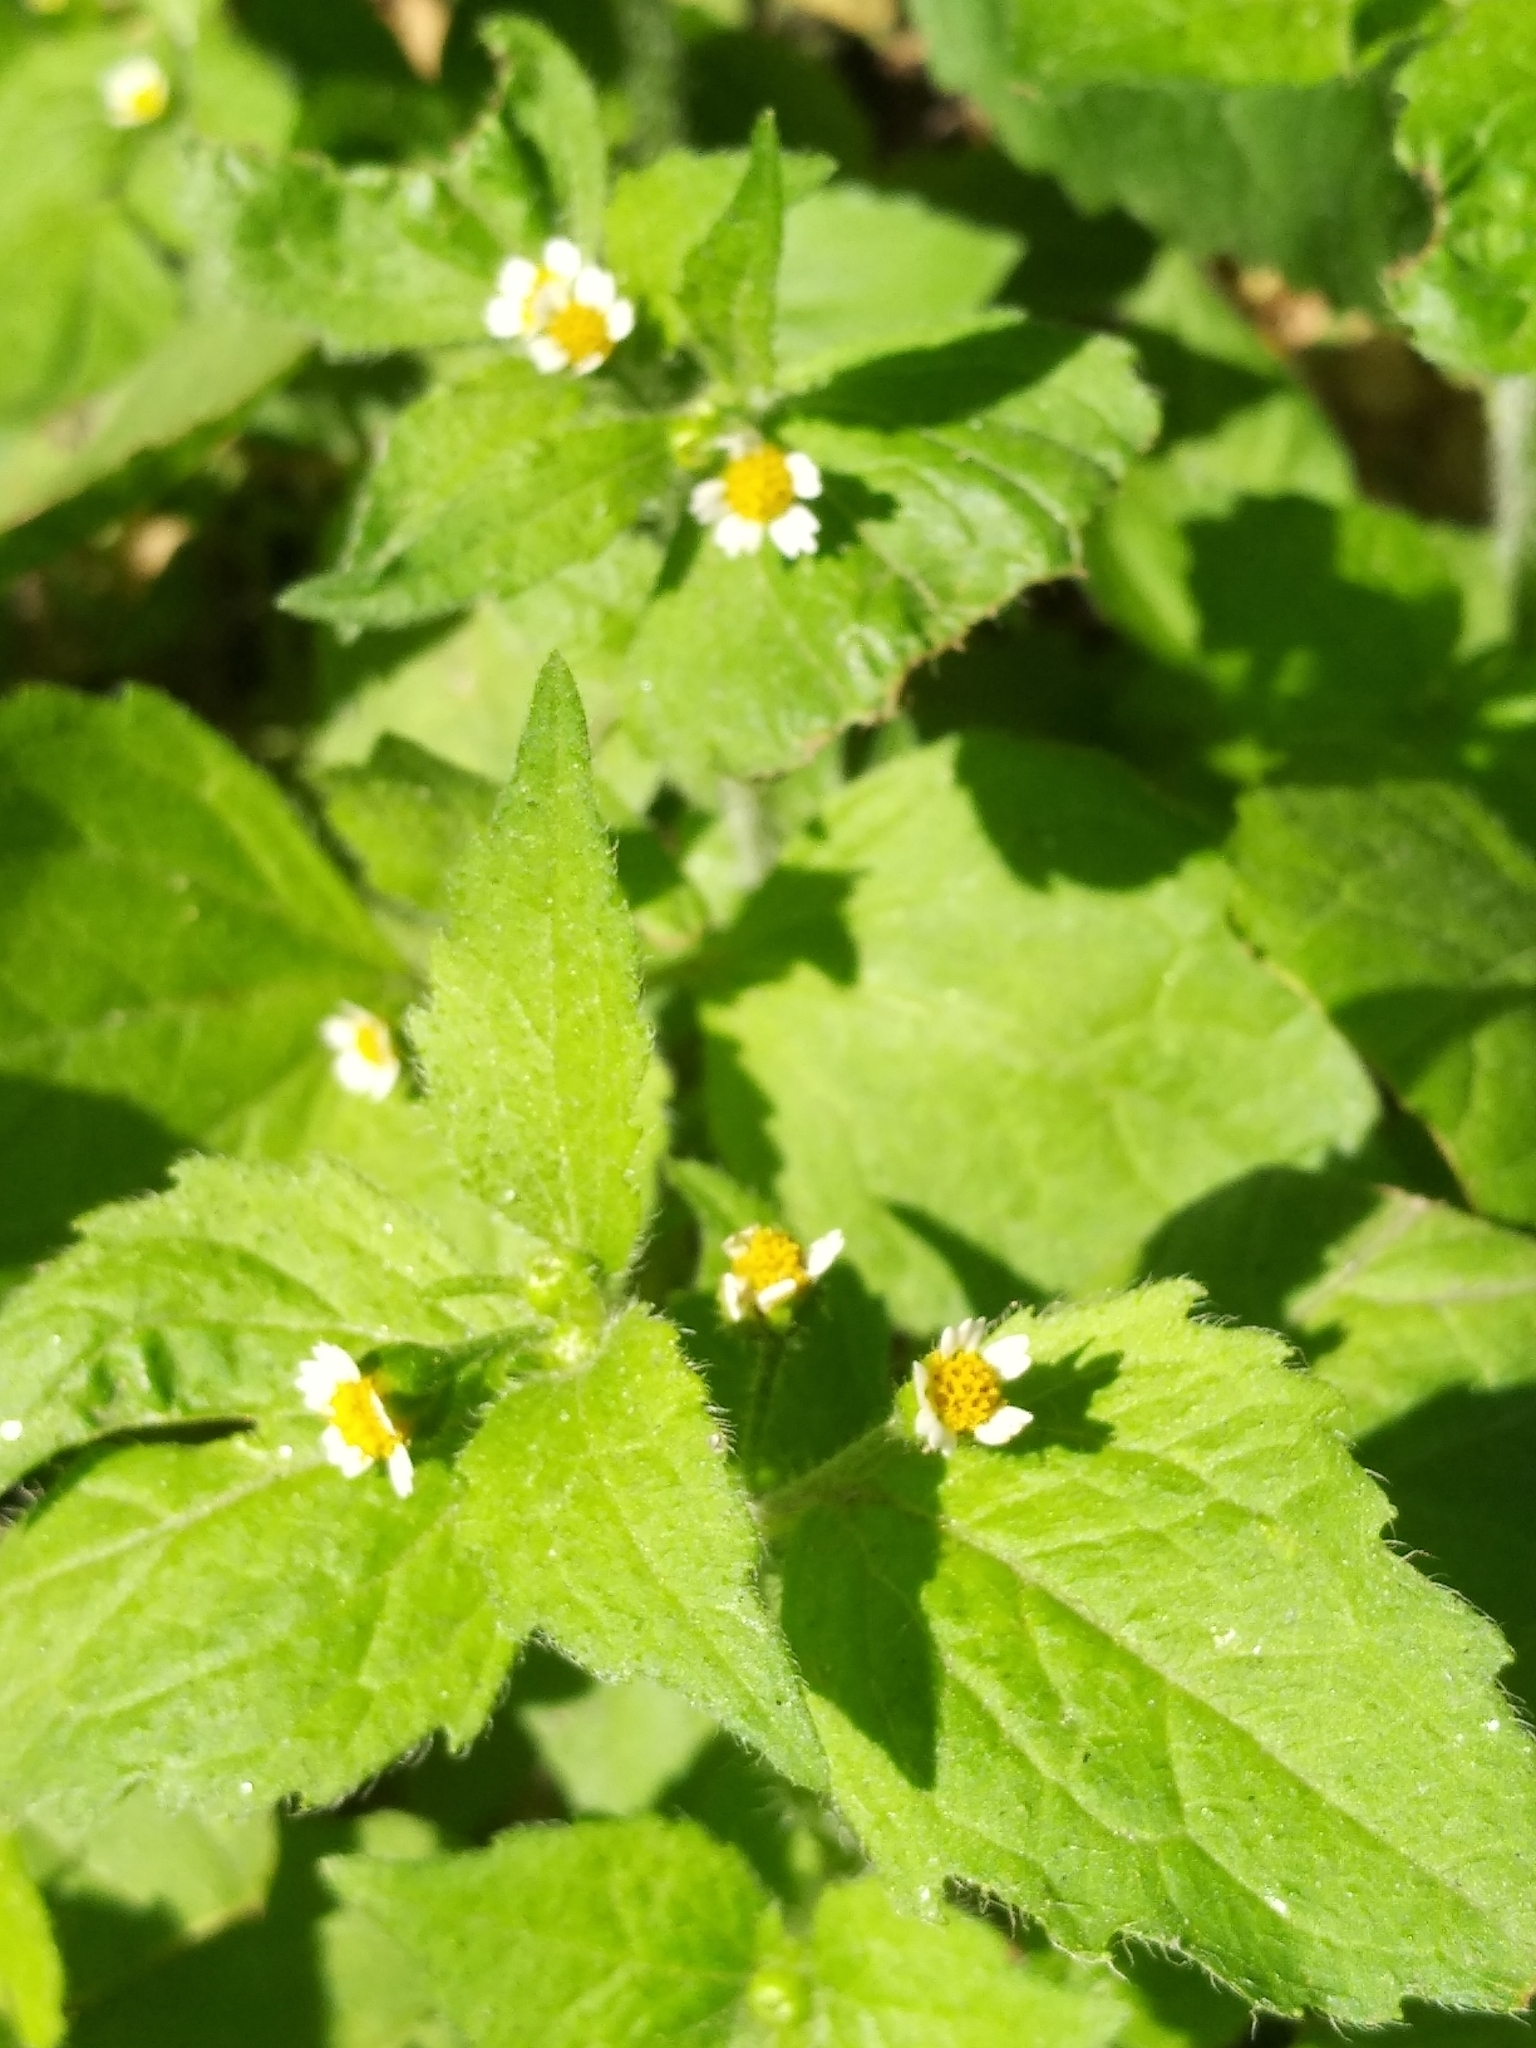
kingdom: Plantae
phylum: Tracheophyta
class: Magnoliopsida
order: Asterales
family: Asteraceae
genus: Galinsoga
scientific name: Galinsoga quadriradiata
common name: Shaggy soldier
